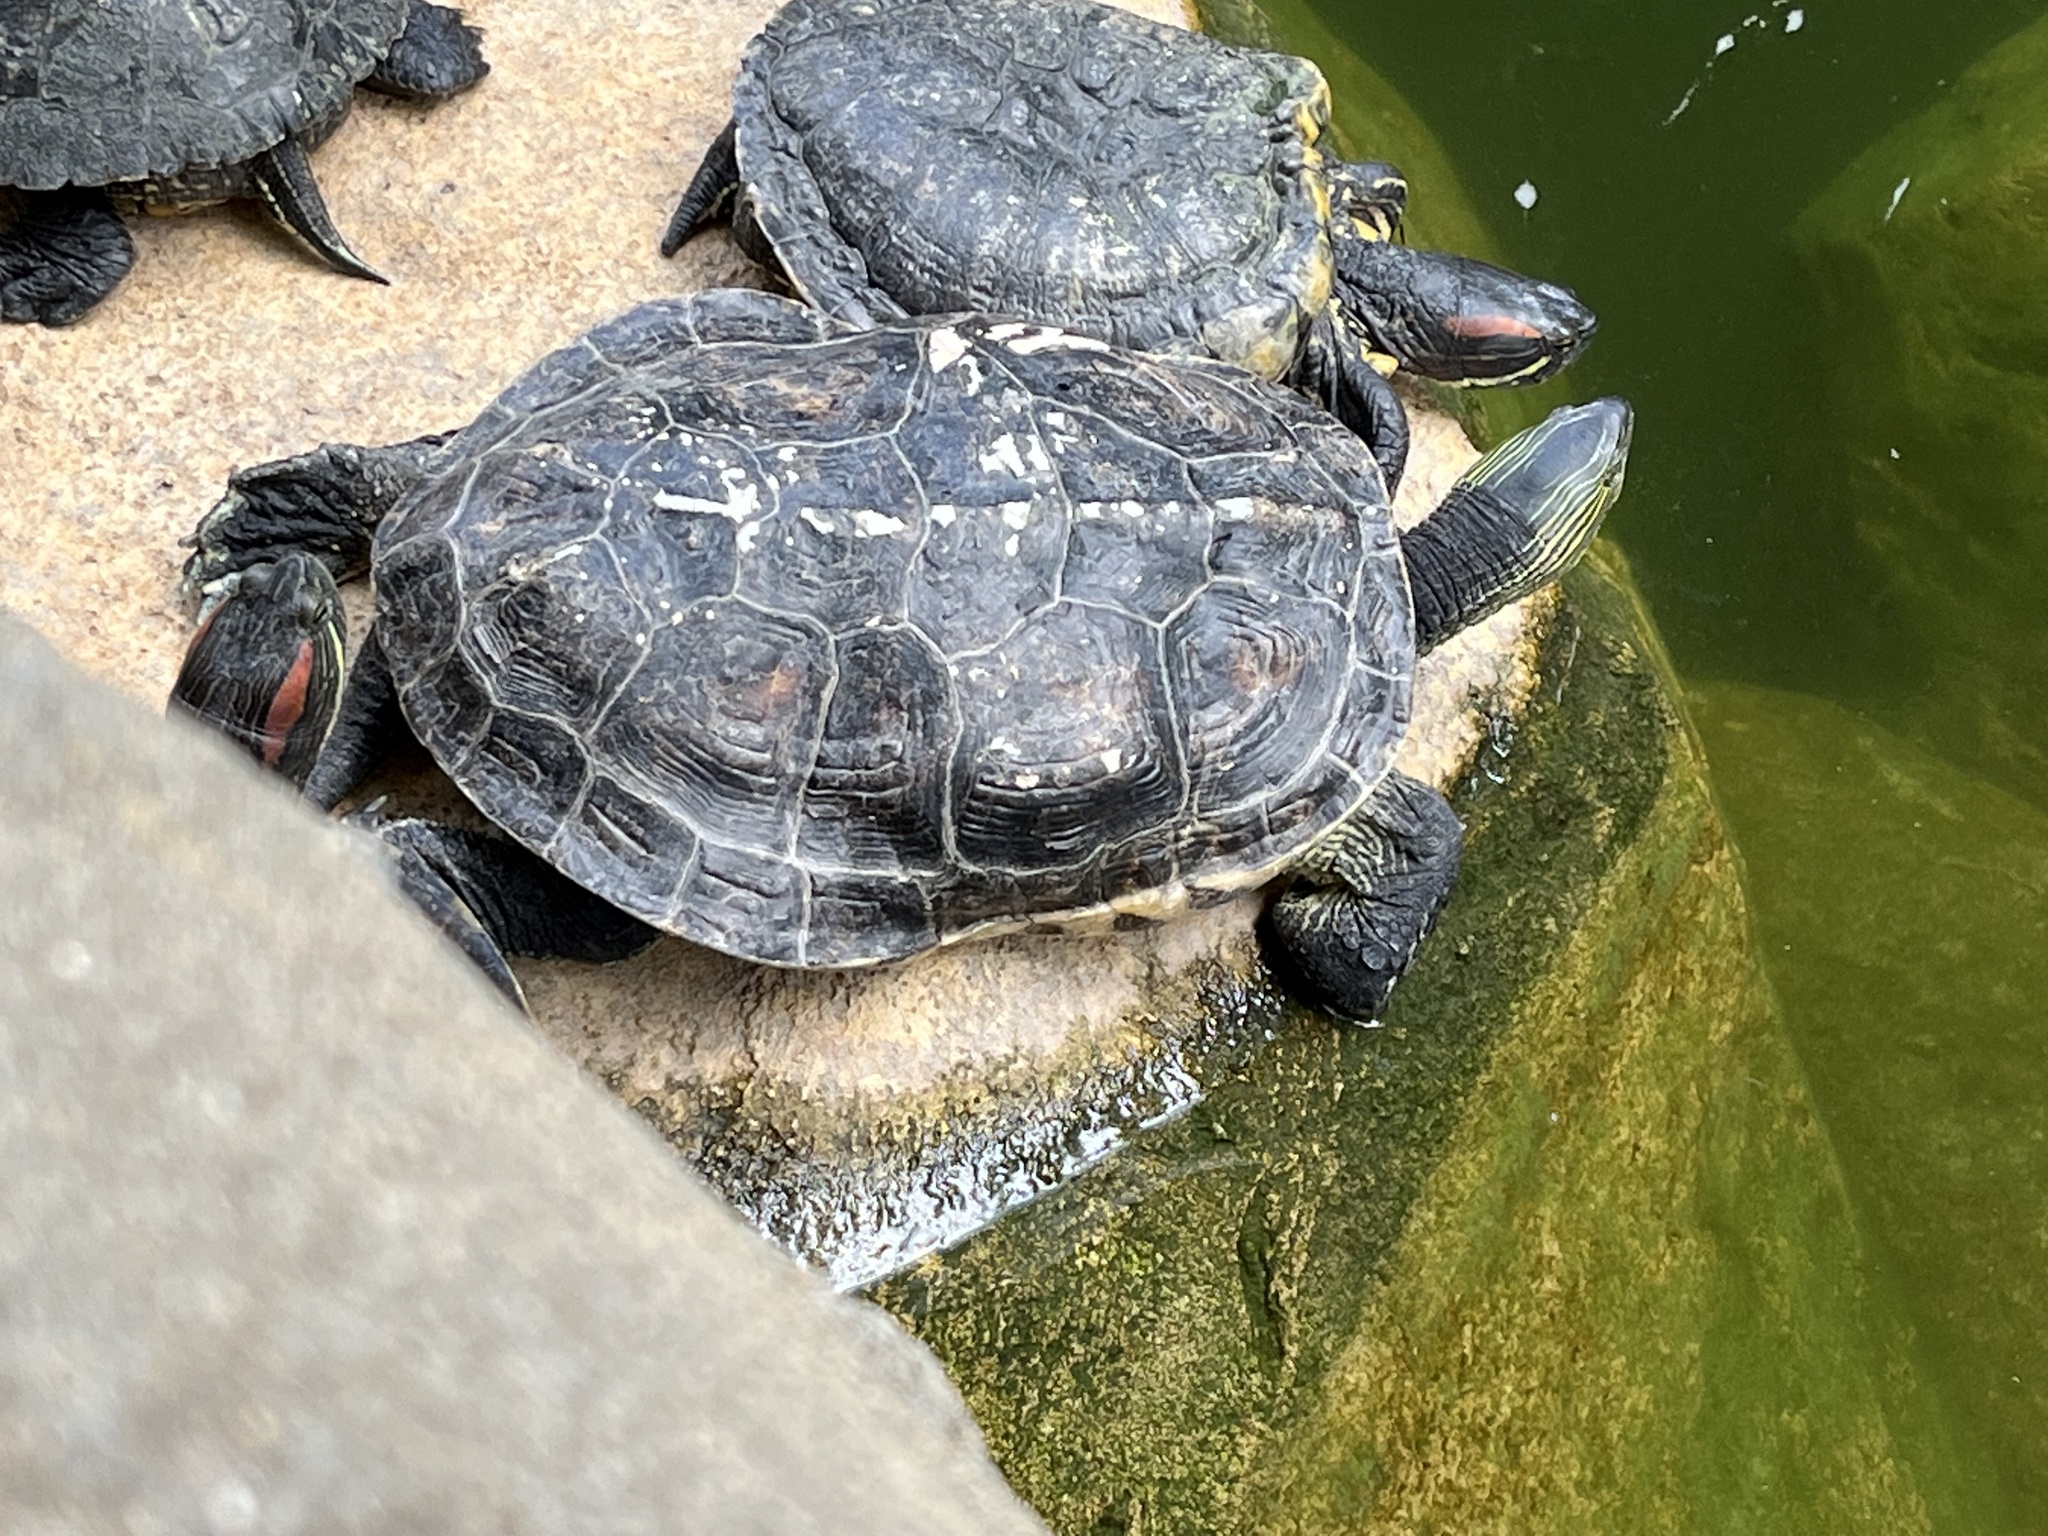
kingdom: Animalia
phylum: Chordata
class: Testudines
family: Geoemydidae
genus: Mauremys
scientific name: Mauremys sinensis
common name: Chinese stripe-necked turtle
